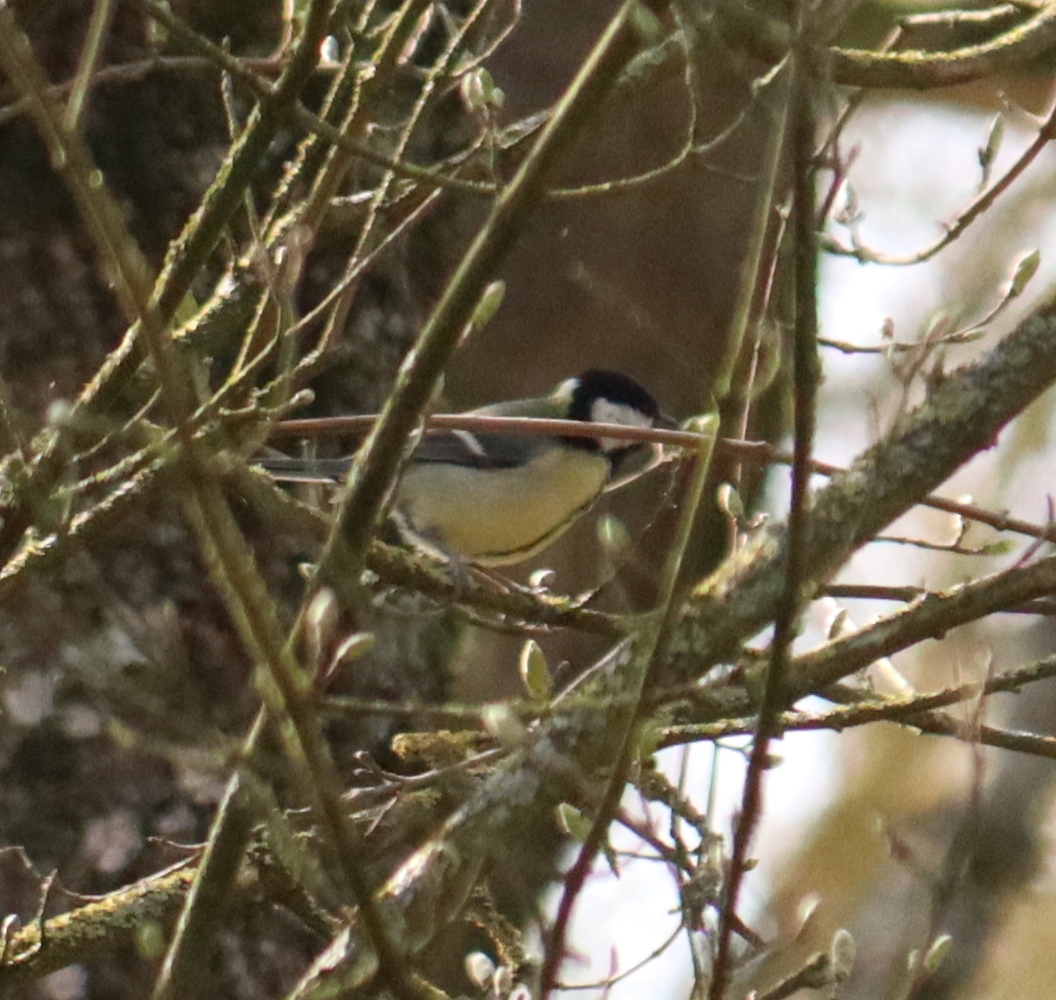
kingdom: Animalia
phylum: Chordata
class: Aves
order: Passeriformes
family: Paridae
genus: Parus
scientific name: Parus major
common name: Great tit
